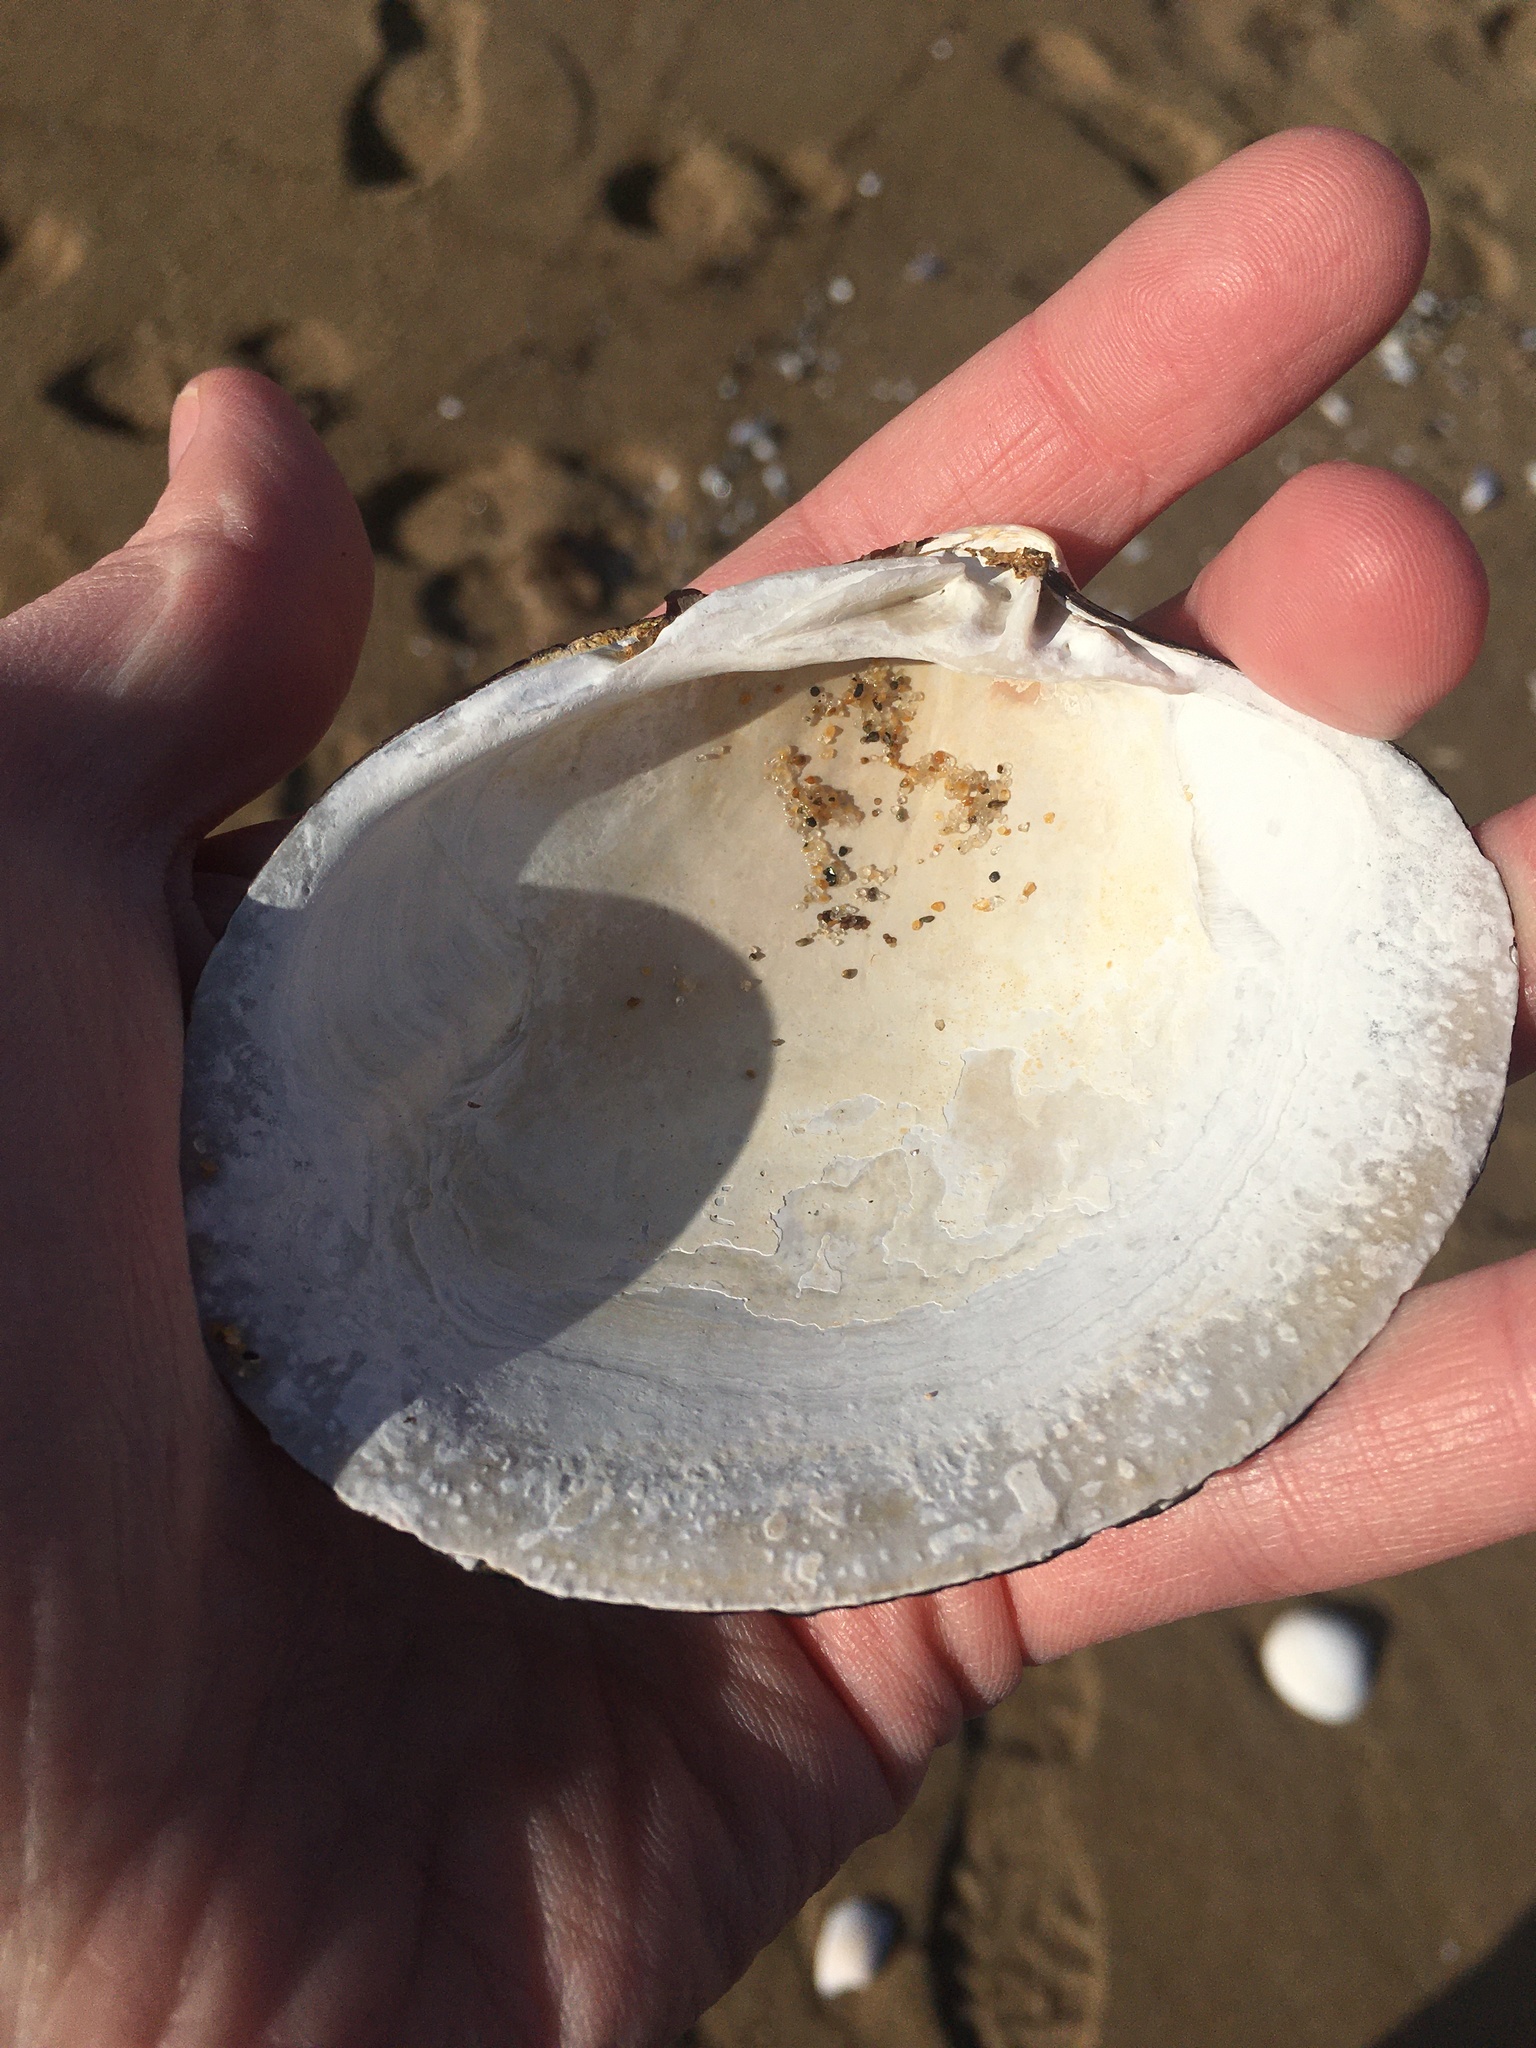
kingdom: Animalia
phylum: Mollusca
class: Bivalvia
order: Venerida
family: Arcticidae
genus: Arctica
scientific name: Arctica islandica
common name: Icelandic cyprine
